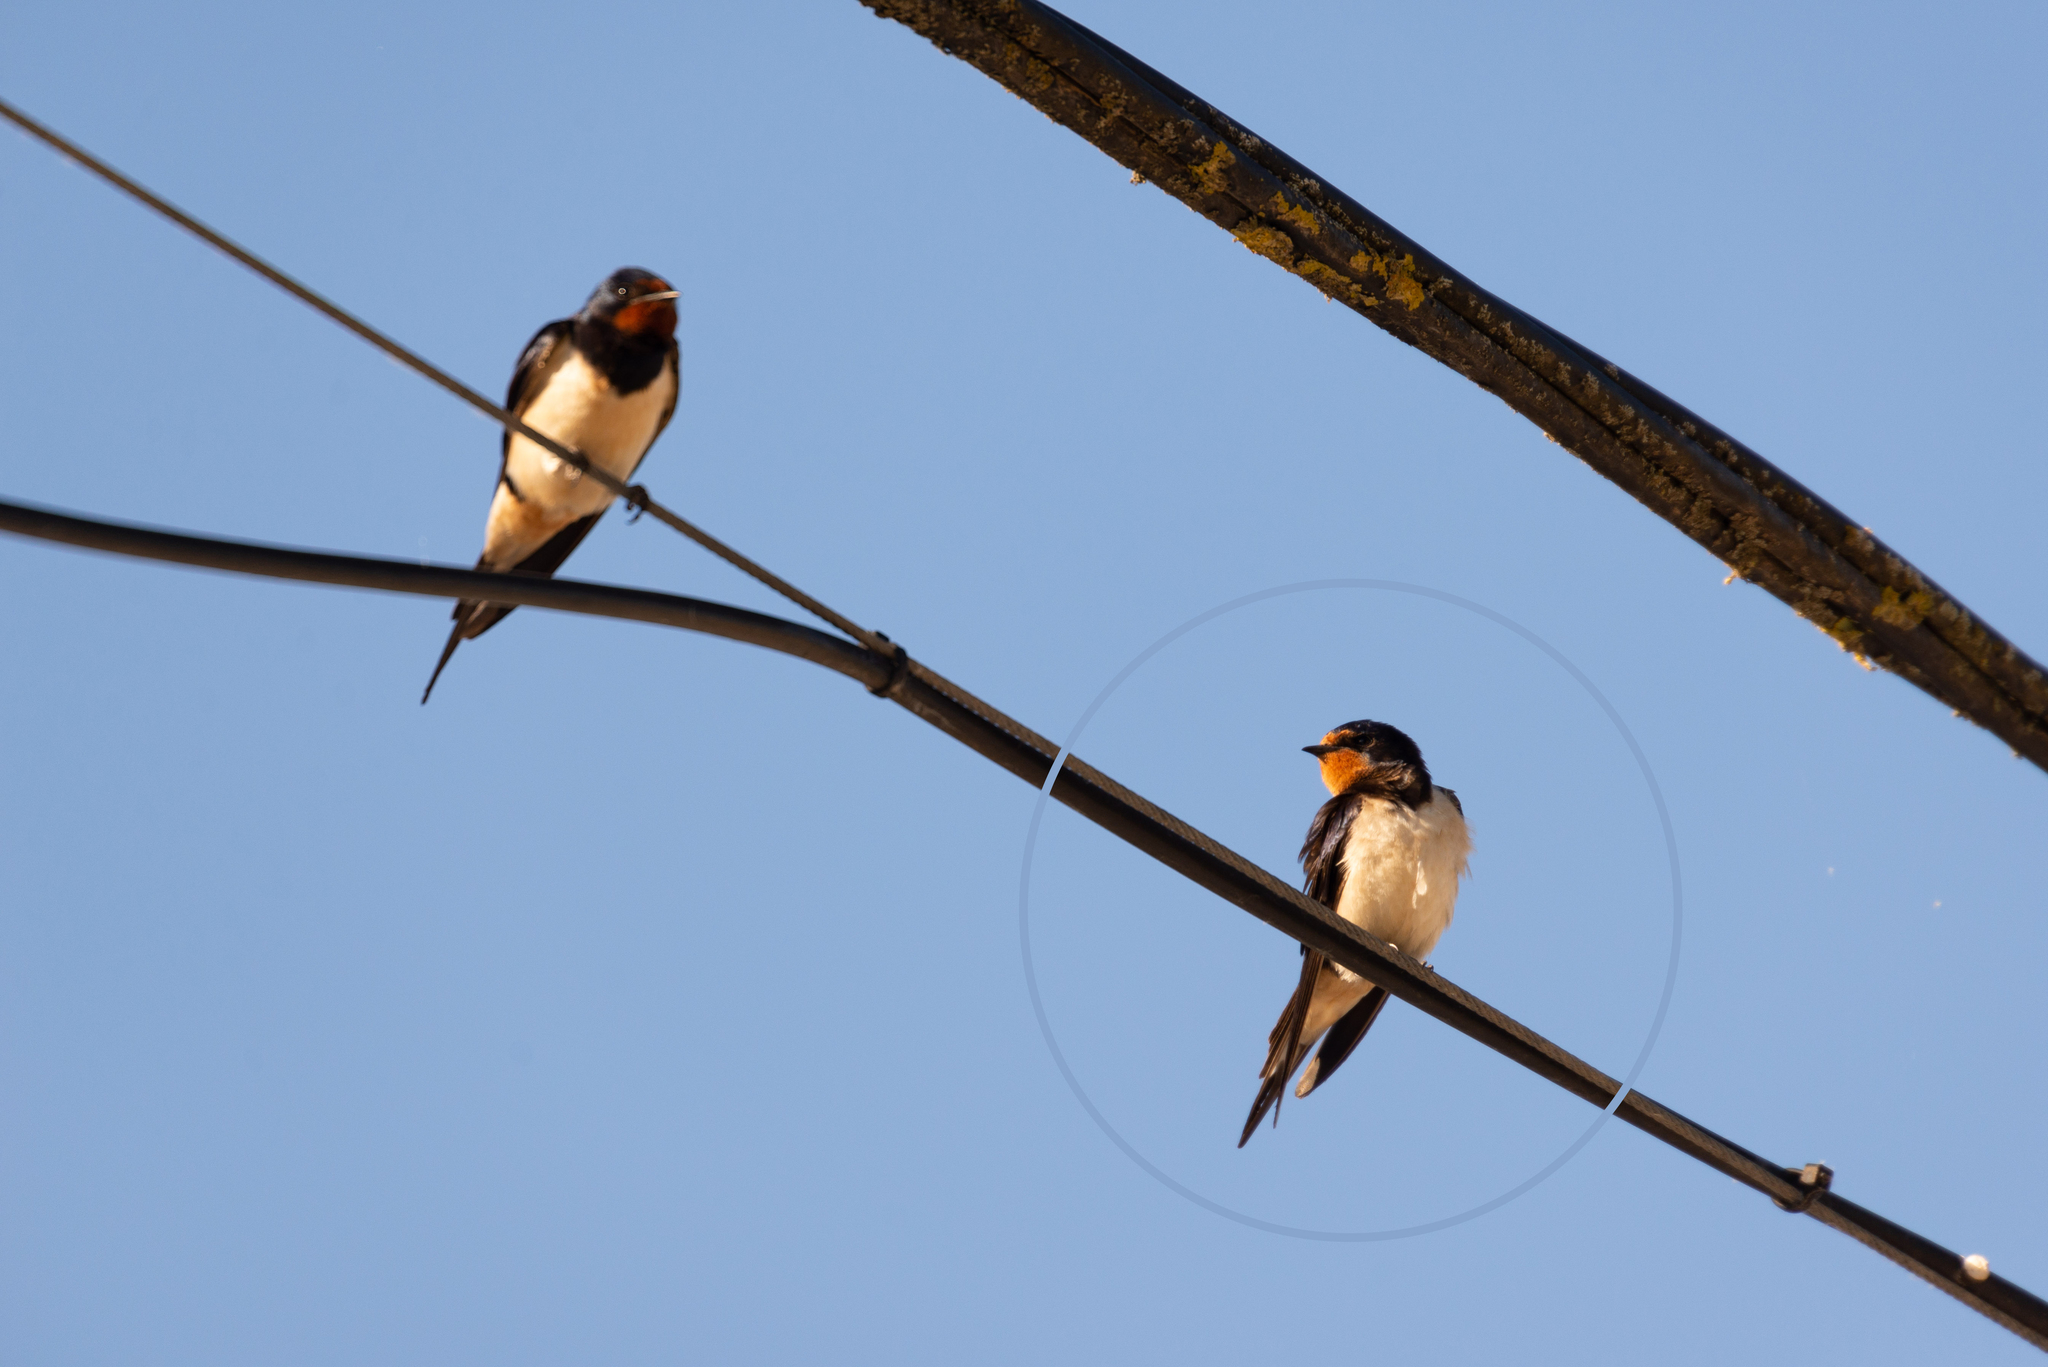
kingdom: Animalia
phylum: Chordata
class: Aves
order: Passeriformes
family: Hirundinidae
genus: Hirundo
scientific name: Hirundo rustica
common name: Barn swallow
